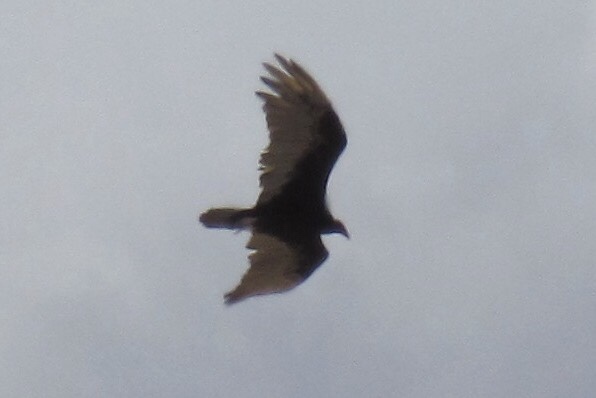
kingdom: Animalia
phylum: Chordata
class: Aves
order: Accipitriformes
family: Cathartidae
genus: Cathartes
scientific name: Cathartes aura
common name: Turkey vulture
